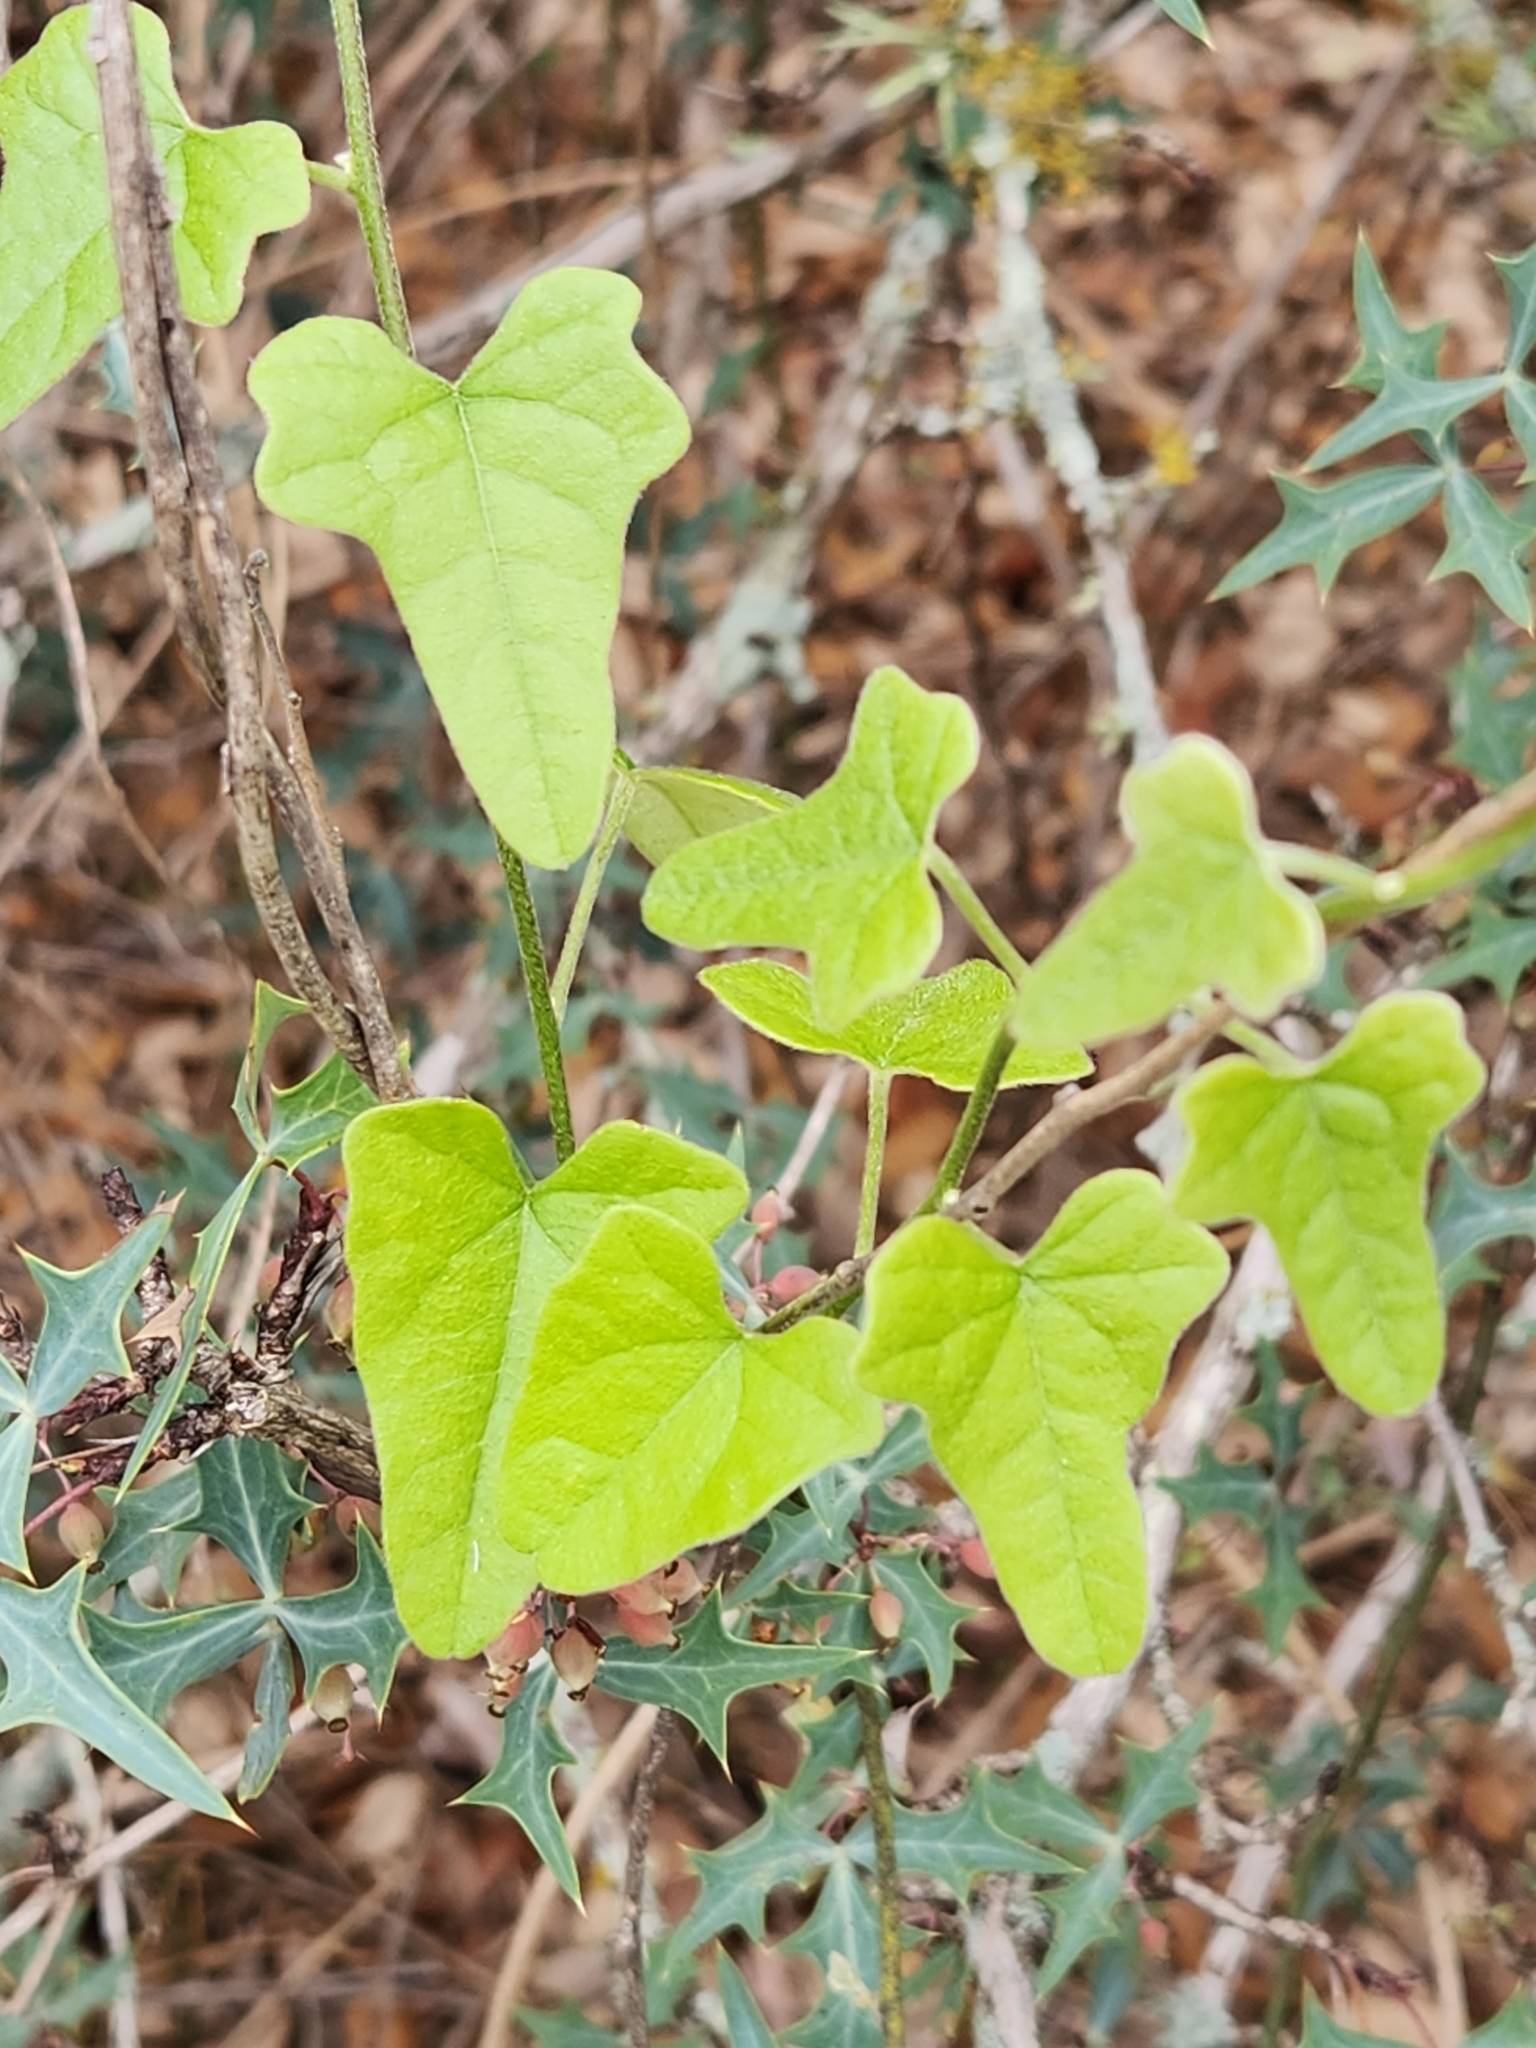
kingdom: Plantae
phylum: Tracheophyta
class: Magnoliopsida
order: Ranunculales
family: Menispermaceae
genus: Cocculus
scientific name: Cocculus carolinus
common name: Carolina moonseed
